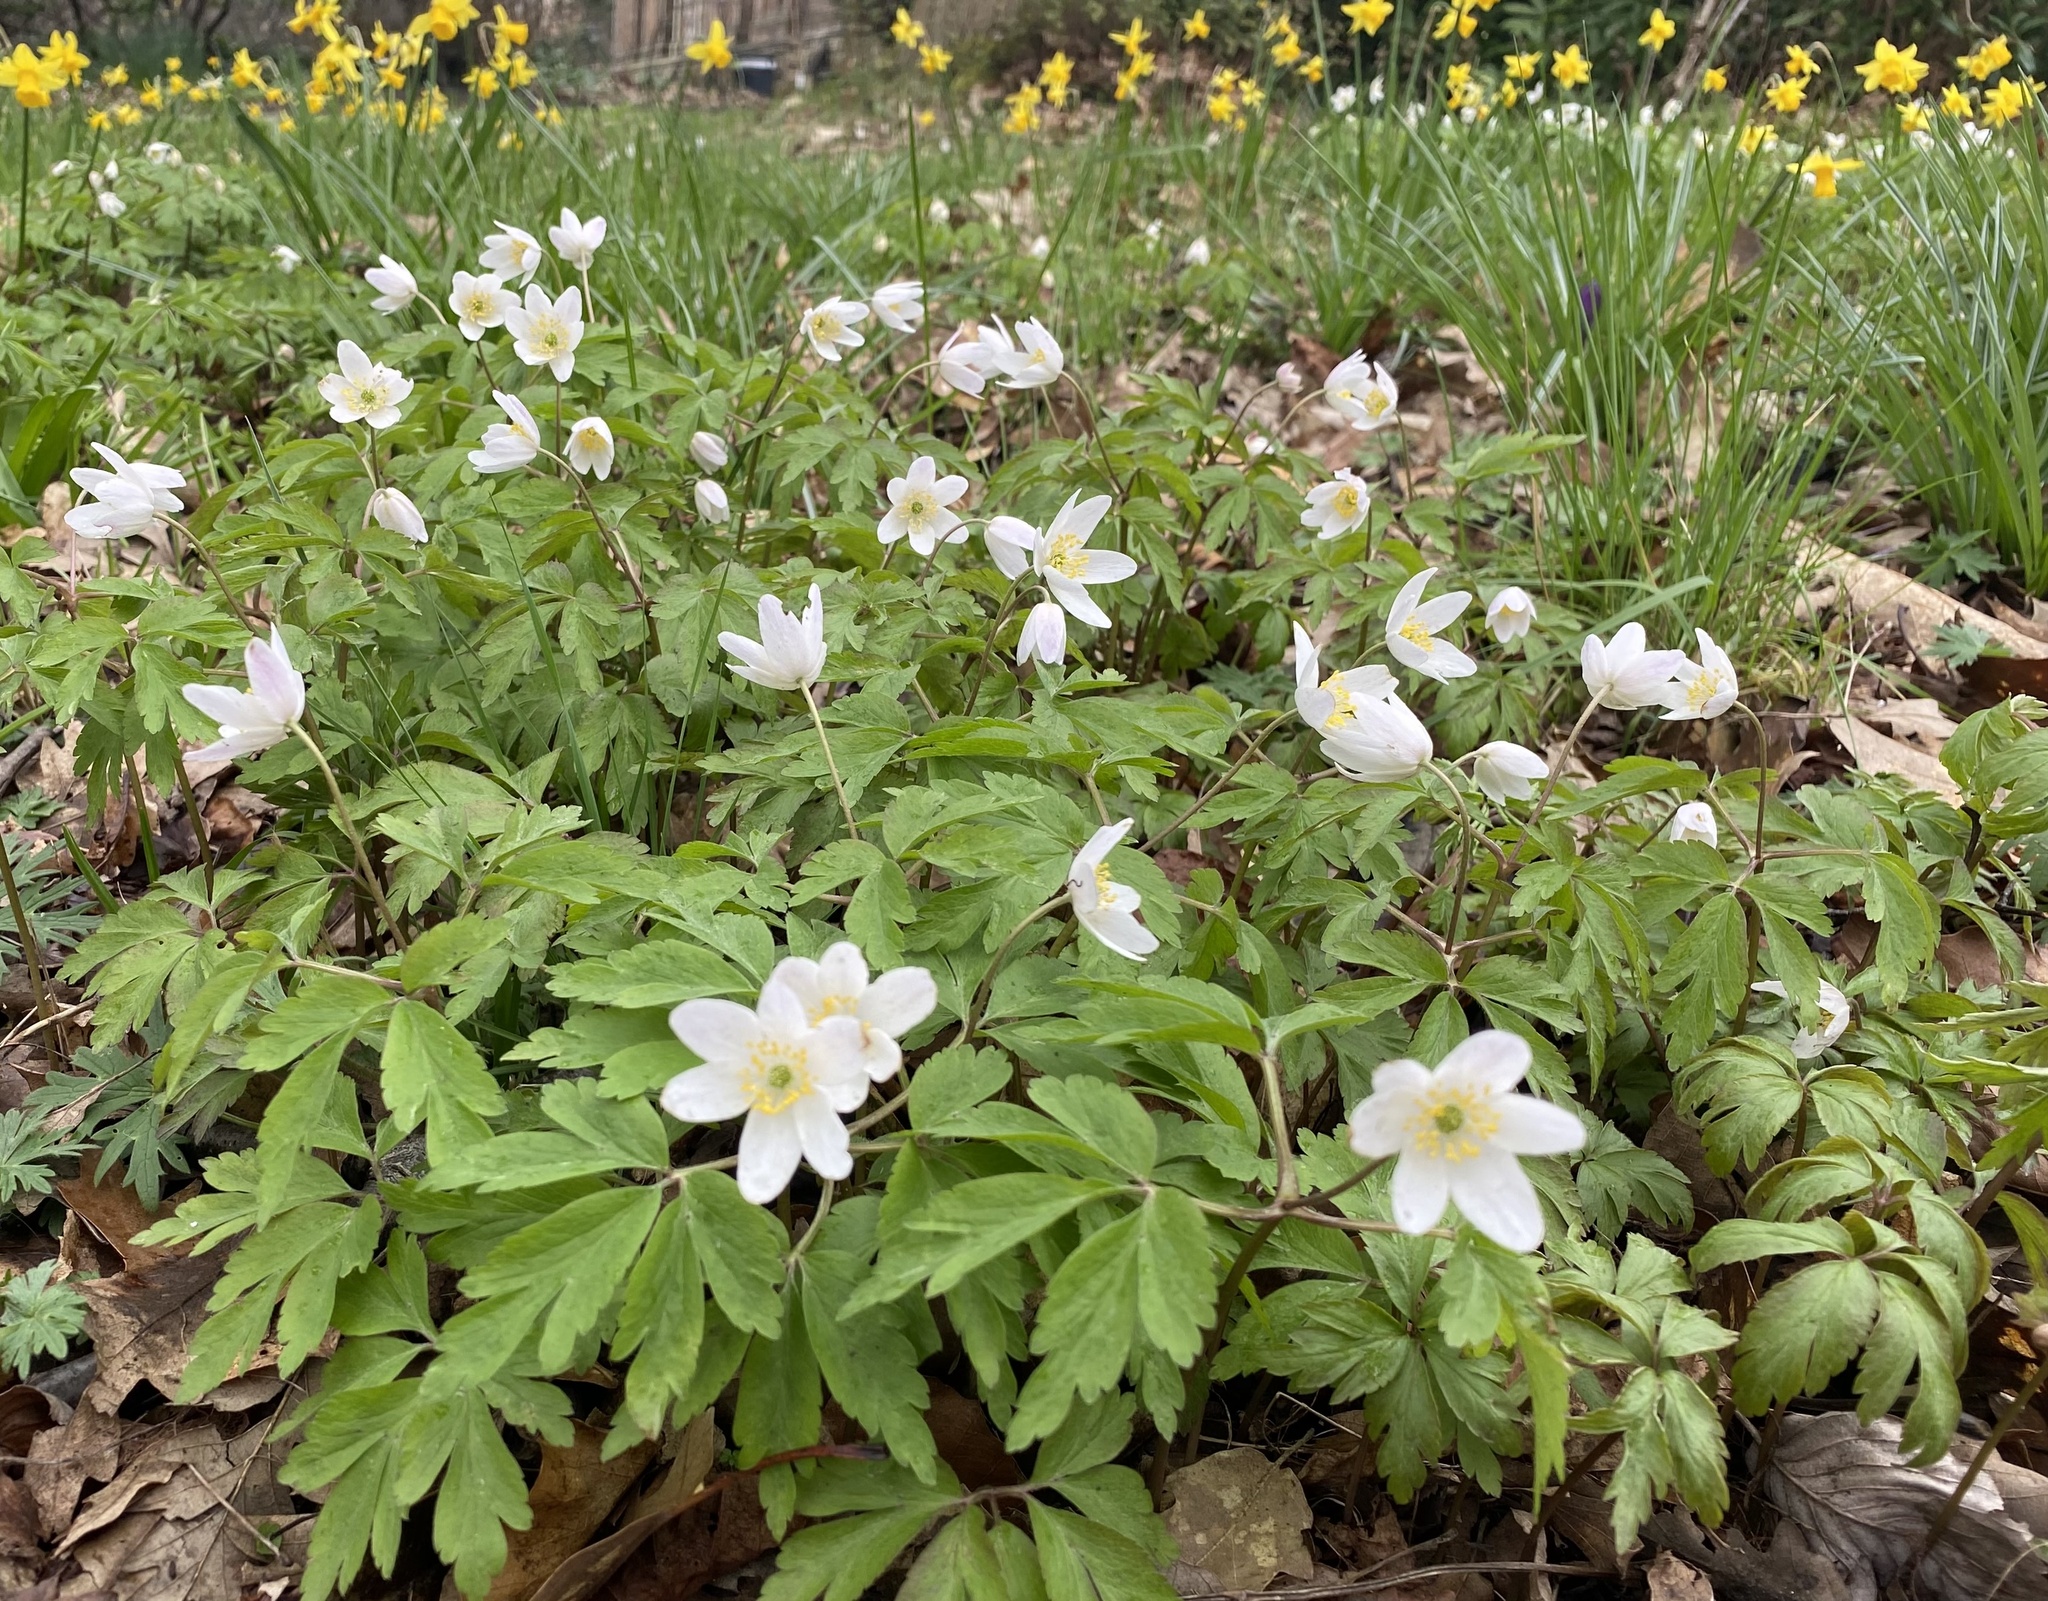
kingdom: Plantae
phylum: Tracheophyta
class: Magnoliopsida
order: Ranunculales
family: Ranunculaceae
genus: Anemone
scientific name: Anemone nemorosa
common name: Wood anemone
